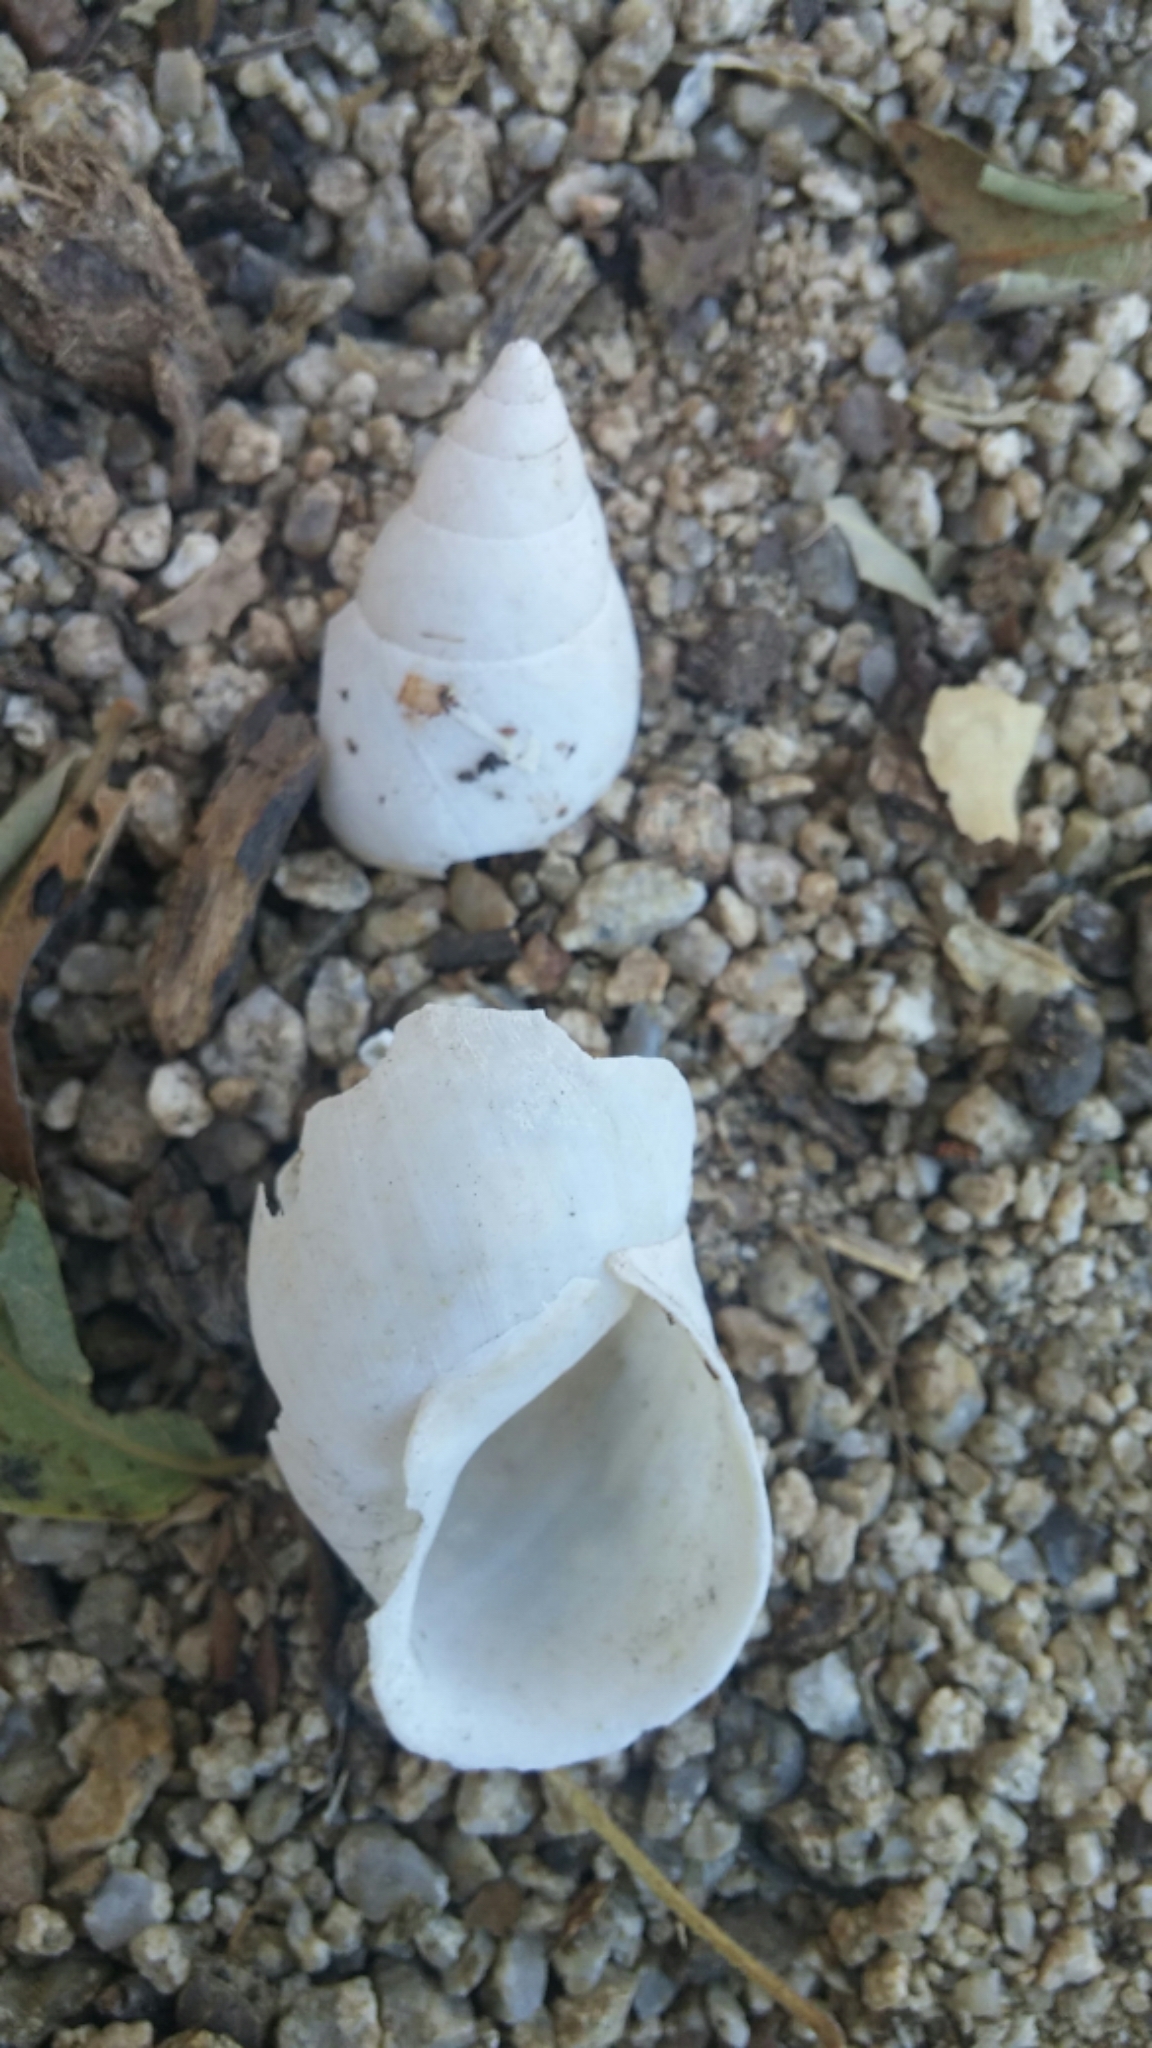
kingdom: Animalia
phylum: Mollusca
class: Gastropoda
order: Stylommatophora
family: Bulimulidae
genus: Naesiotus
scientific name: Naesiotus spirifer
